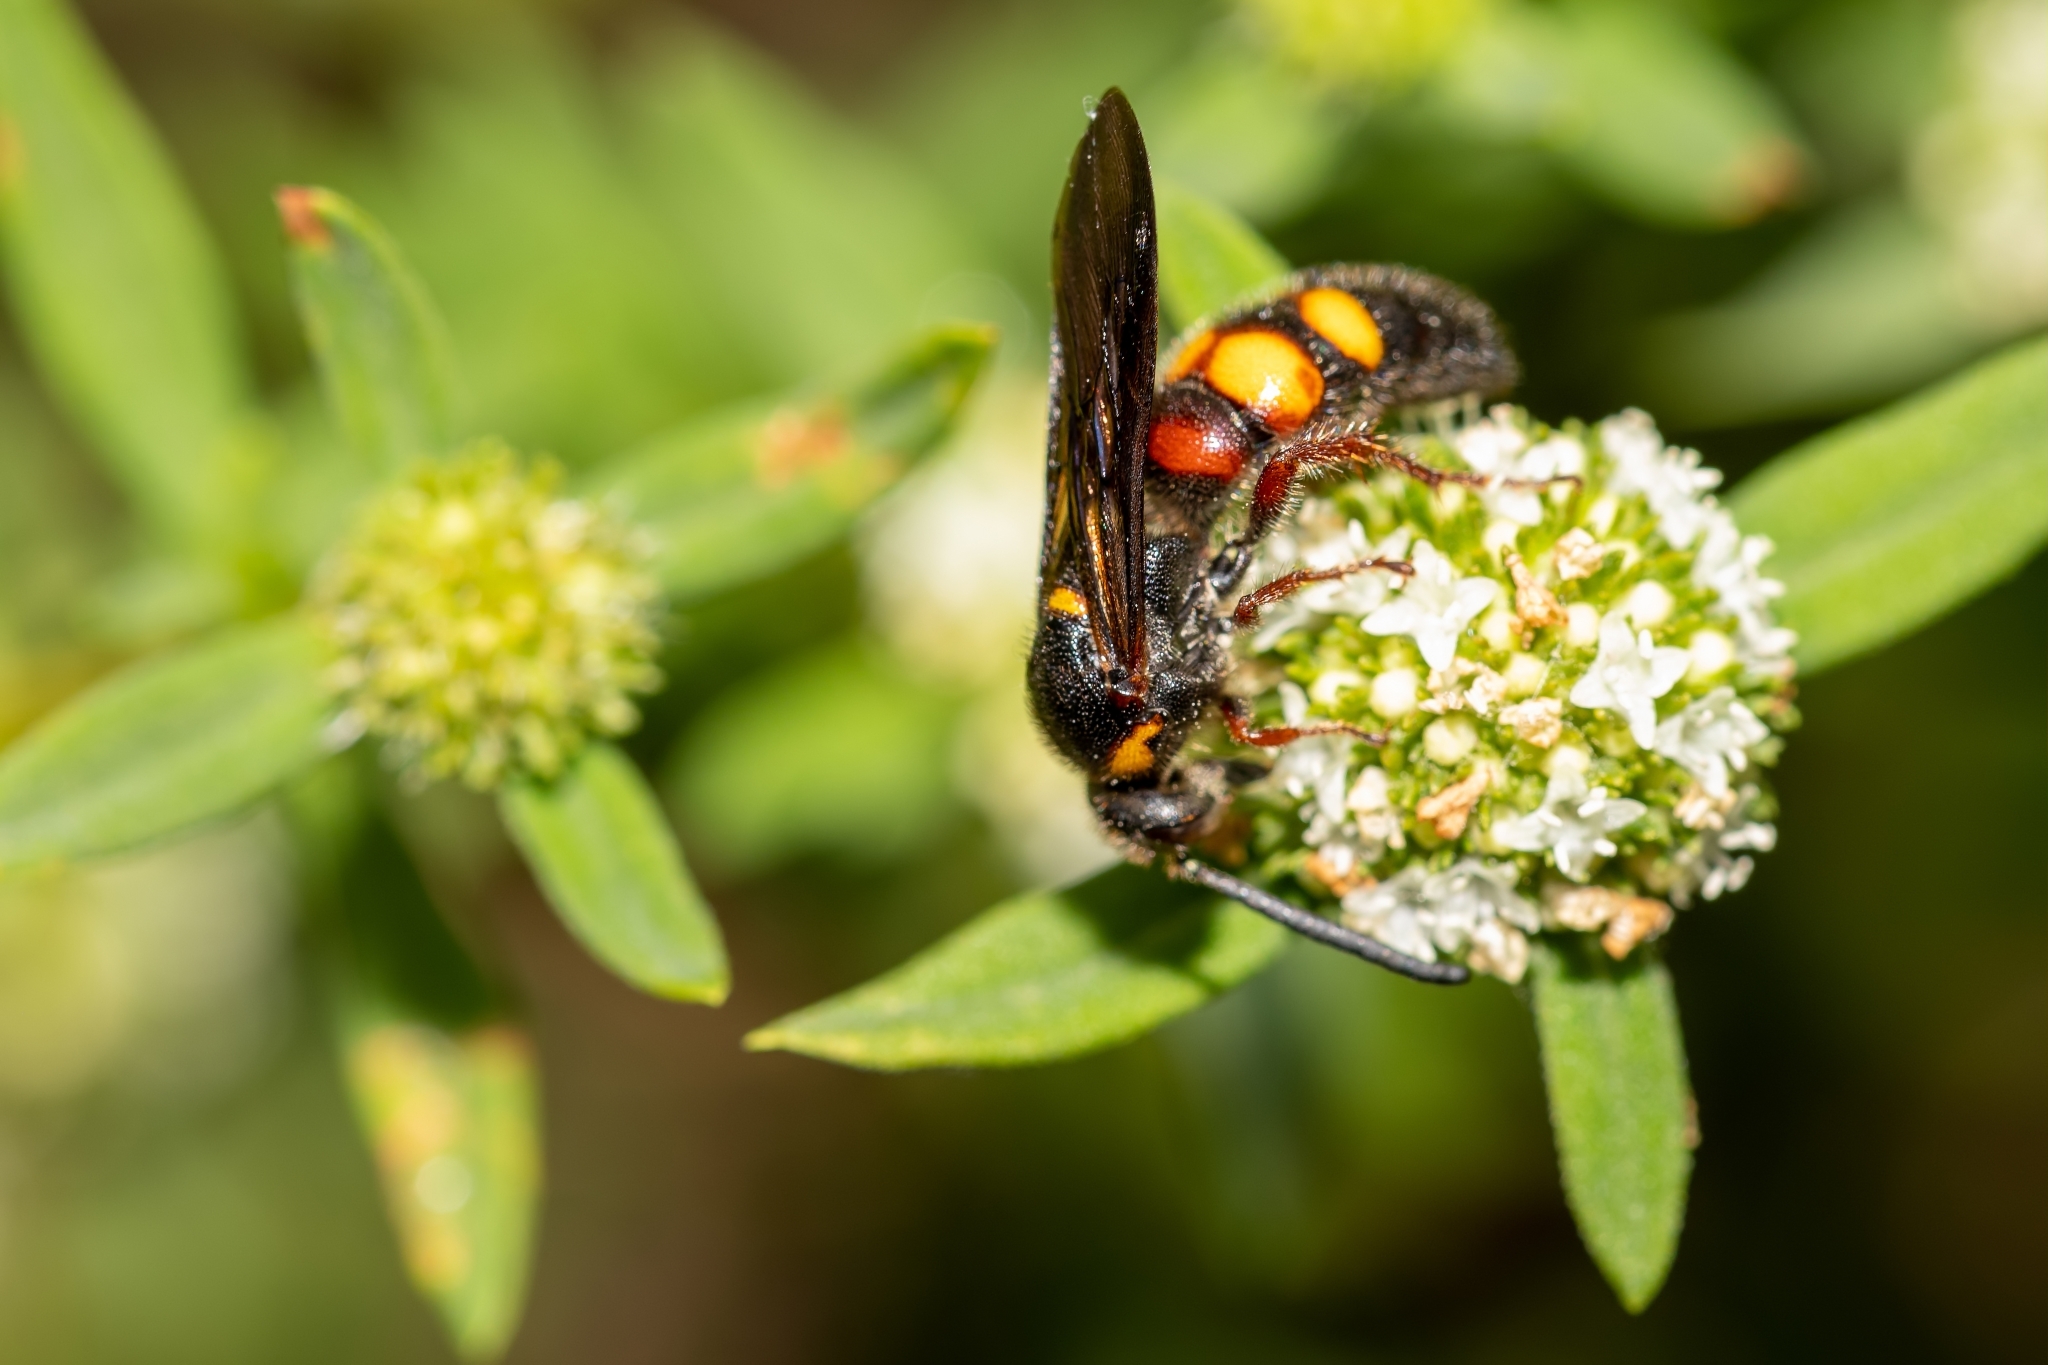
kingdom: Animalia
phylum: Arthropoda
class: Insecta
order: Hymenoptera
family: Scoliidae
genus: Scolia
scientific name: Scolia nobilitata
